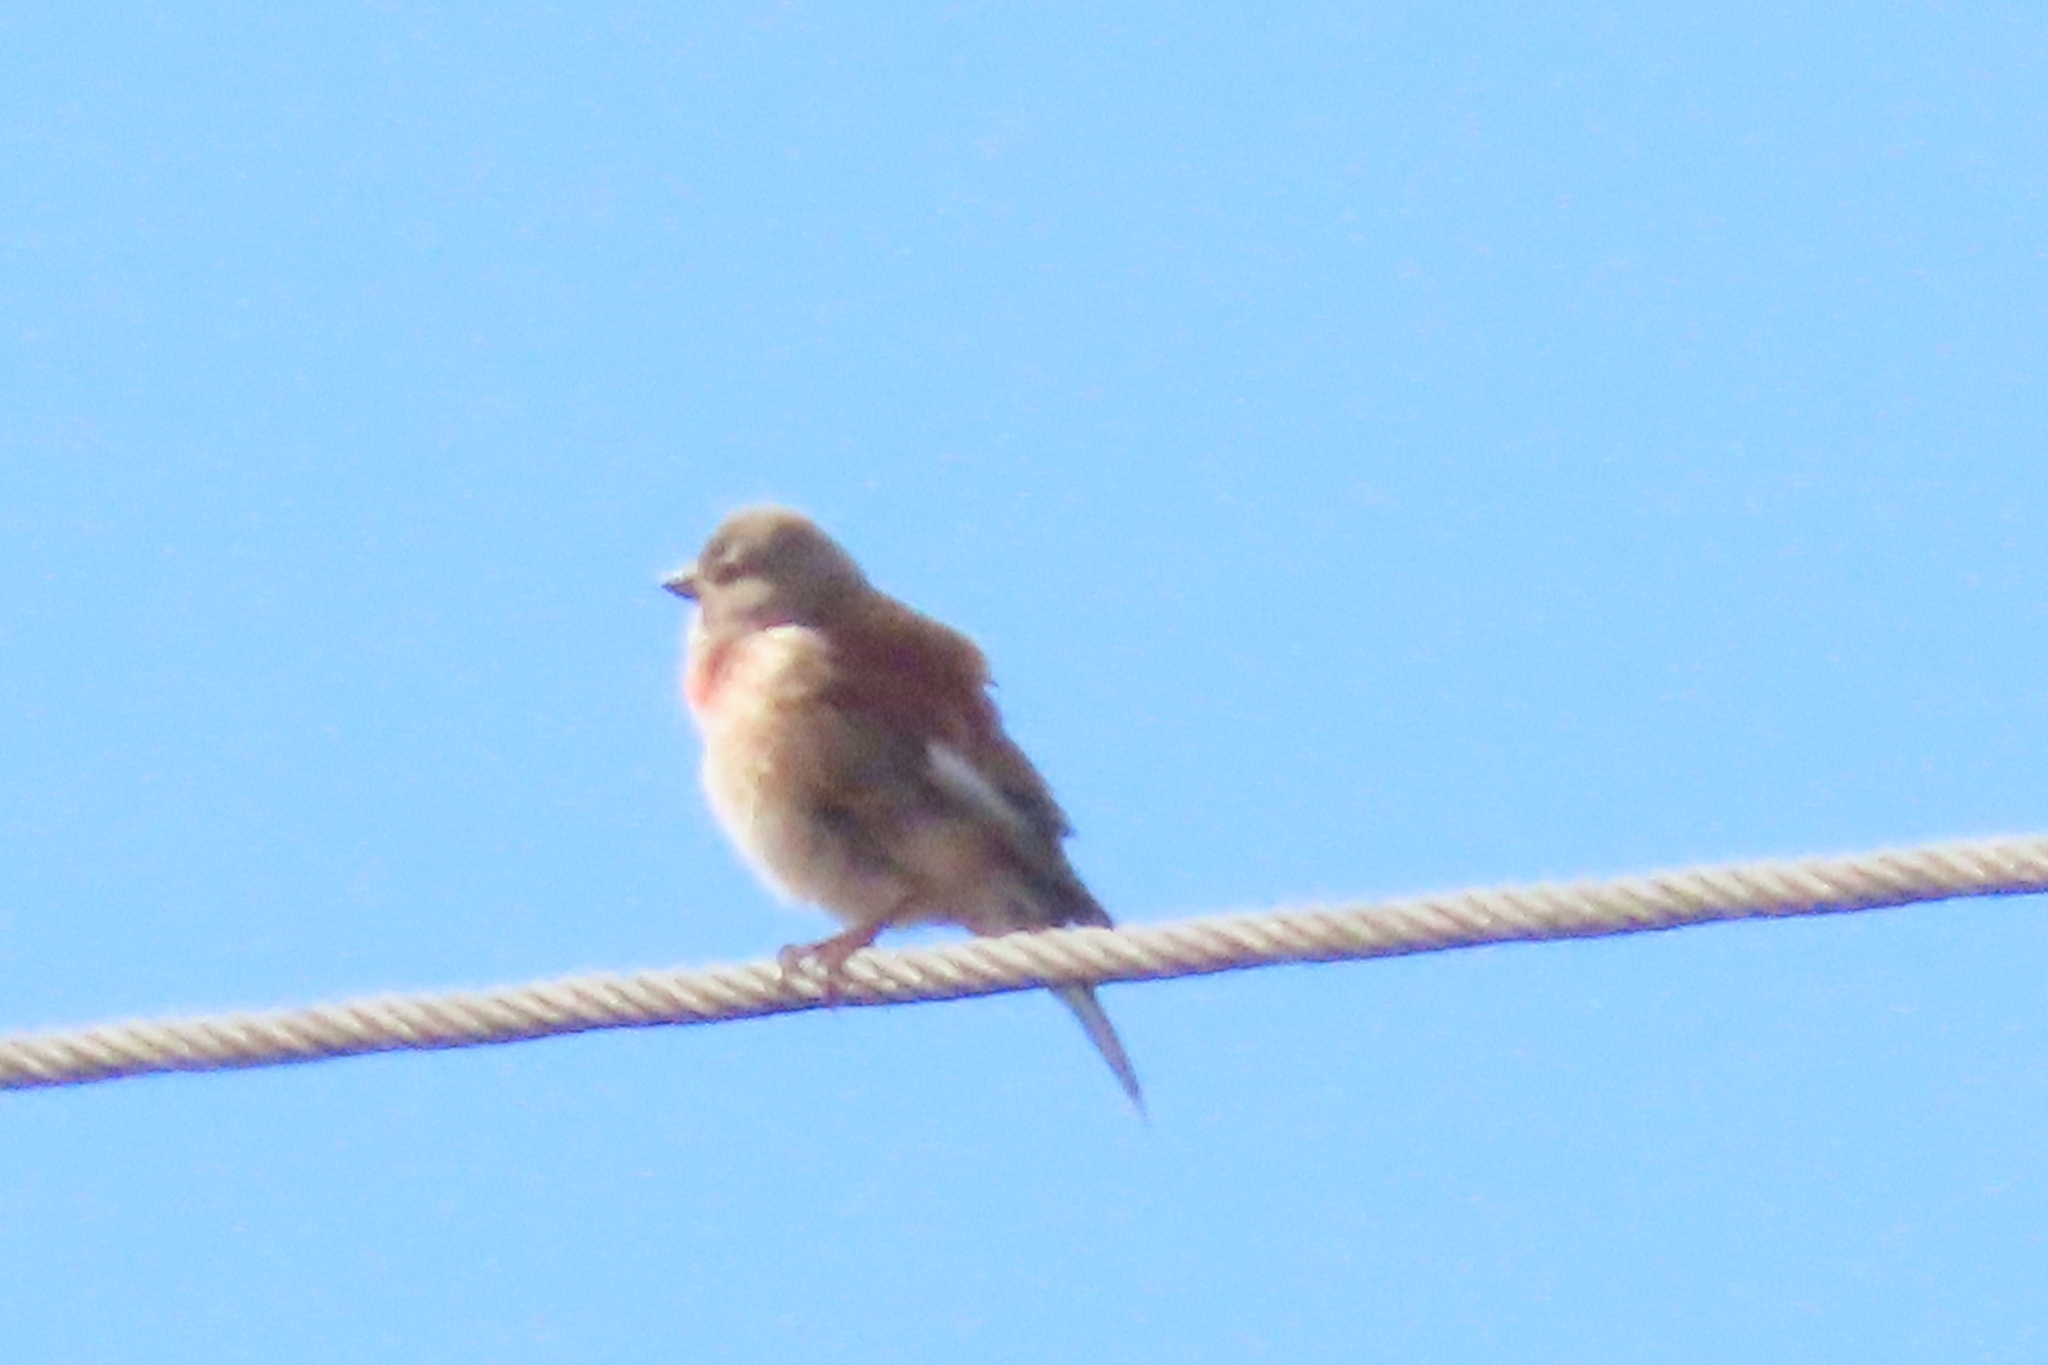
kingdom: Animalia
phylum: Chordata
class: Aves
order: Passeriformes
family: Fringillidae
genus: Linaria
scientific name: Linaria cannabina
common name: Common linnet
